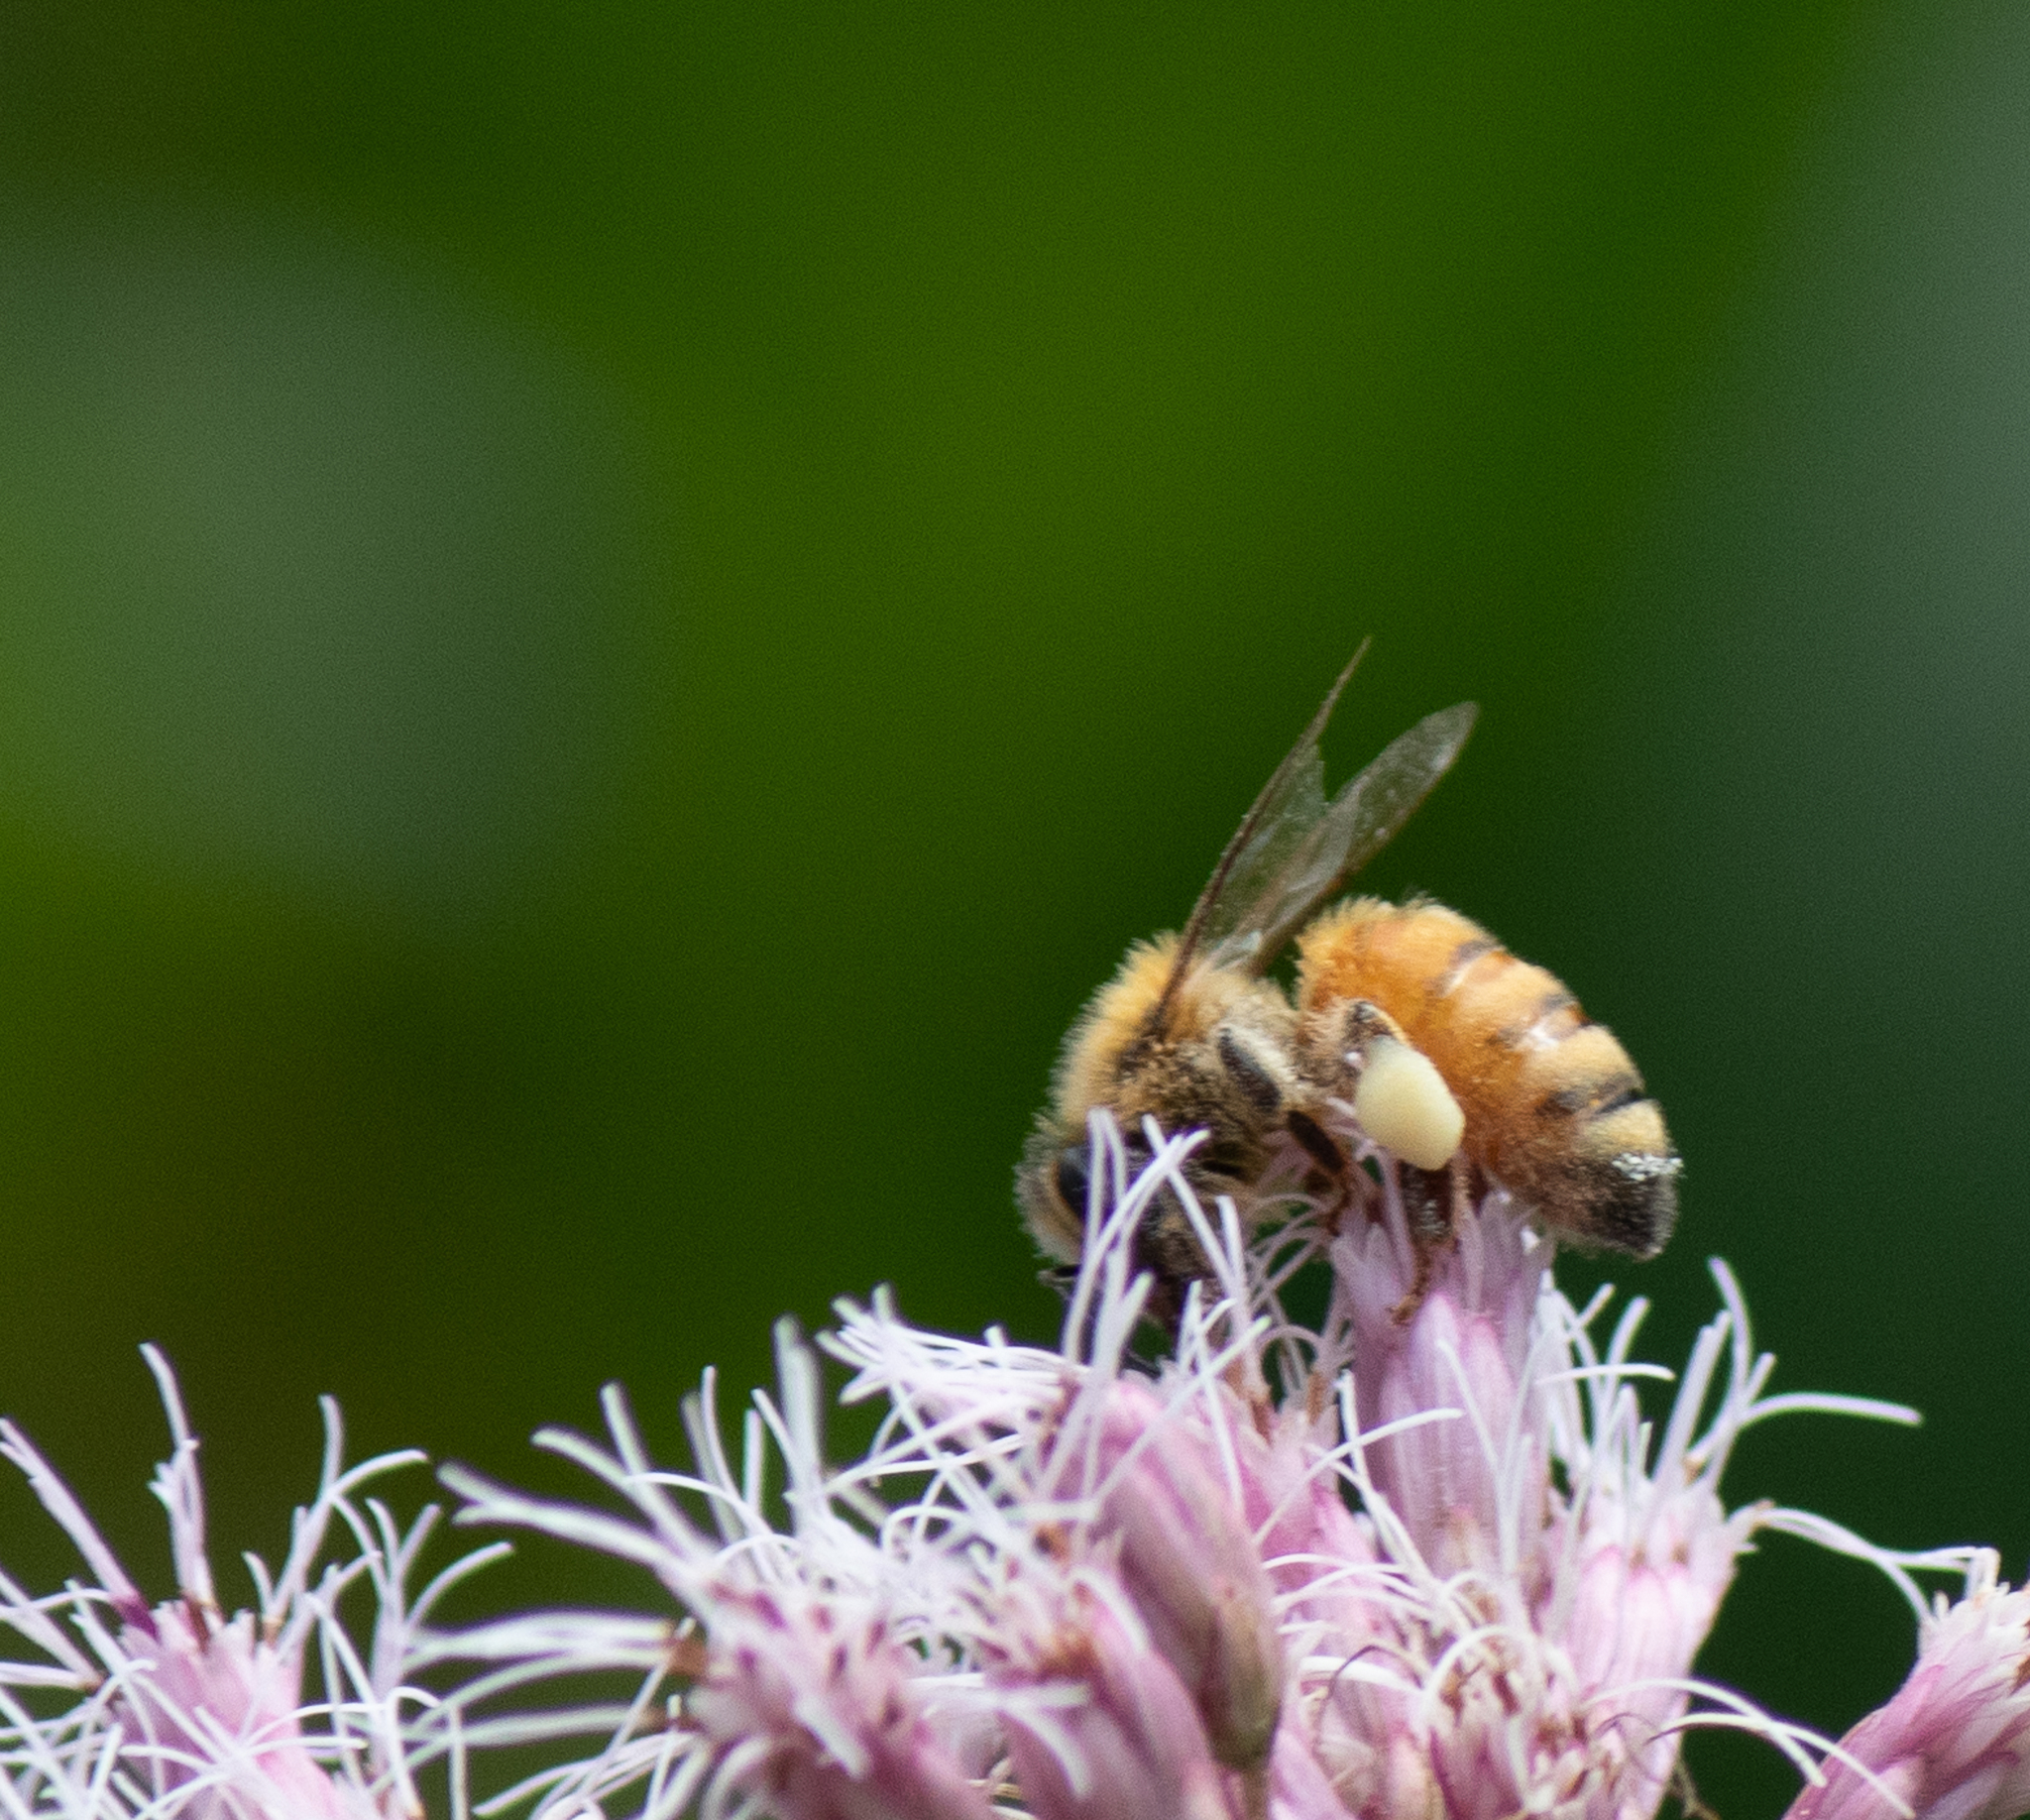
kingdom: Animalia
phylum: Arthropoda
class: Insecta
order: Hymenoptera
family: Apidae
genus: Apis
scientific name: Apis mellifera
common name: Honey bee
